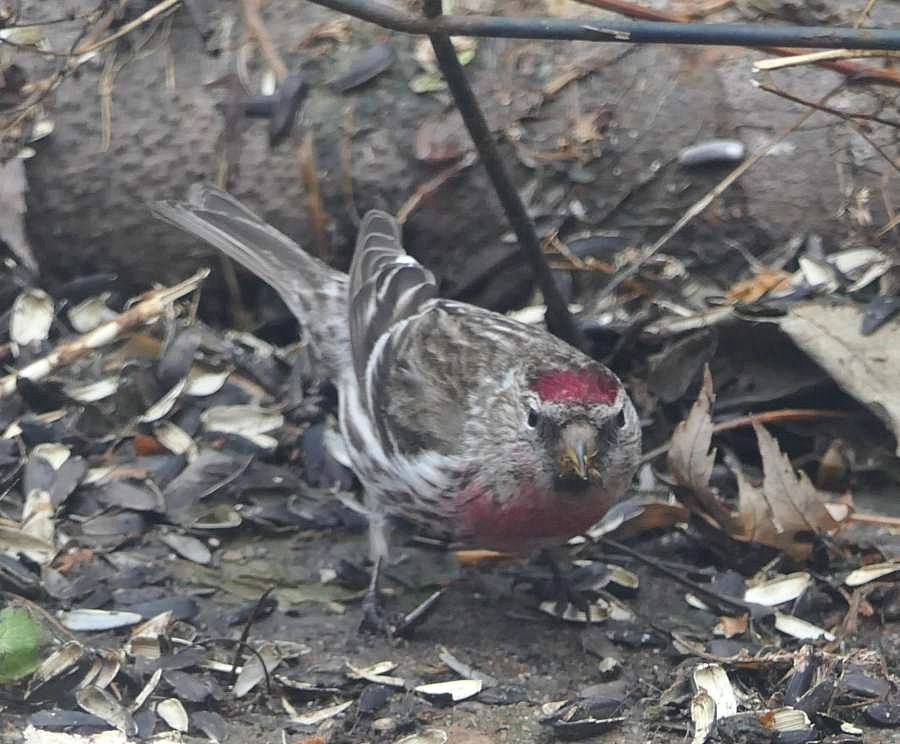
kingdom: Animalia
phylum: Chordata
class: Aves
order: Passeriformes
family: Fringillidae
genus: Acanthis
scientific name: Acanthis flammea
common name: Common redpoll
